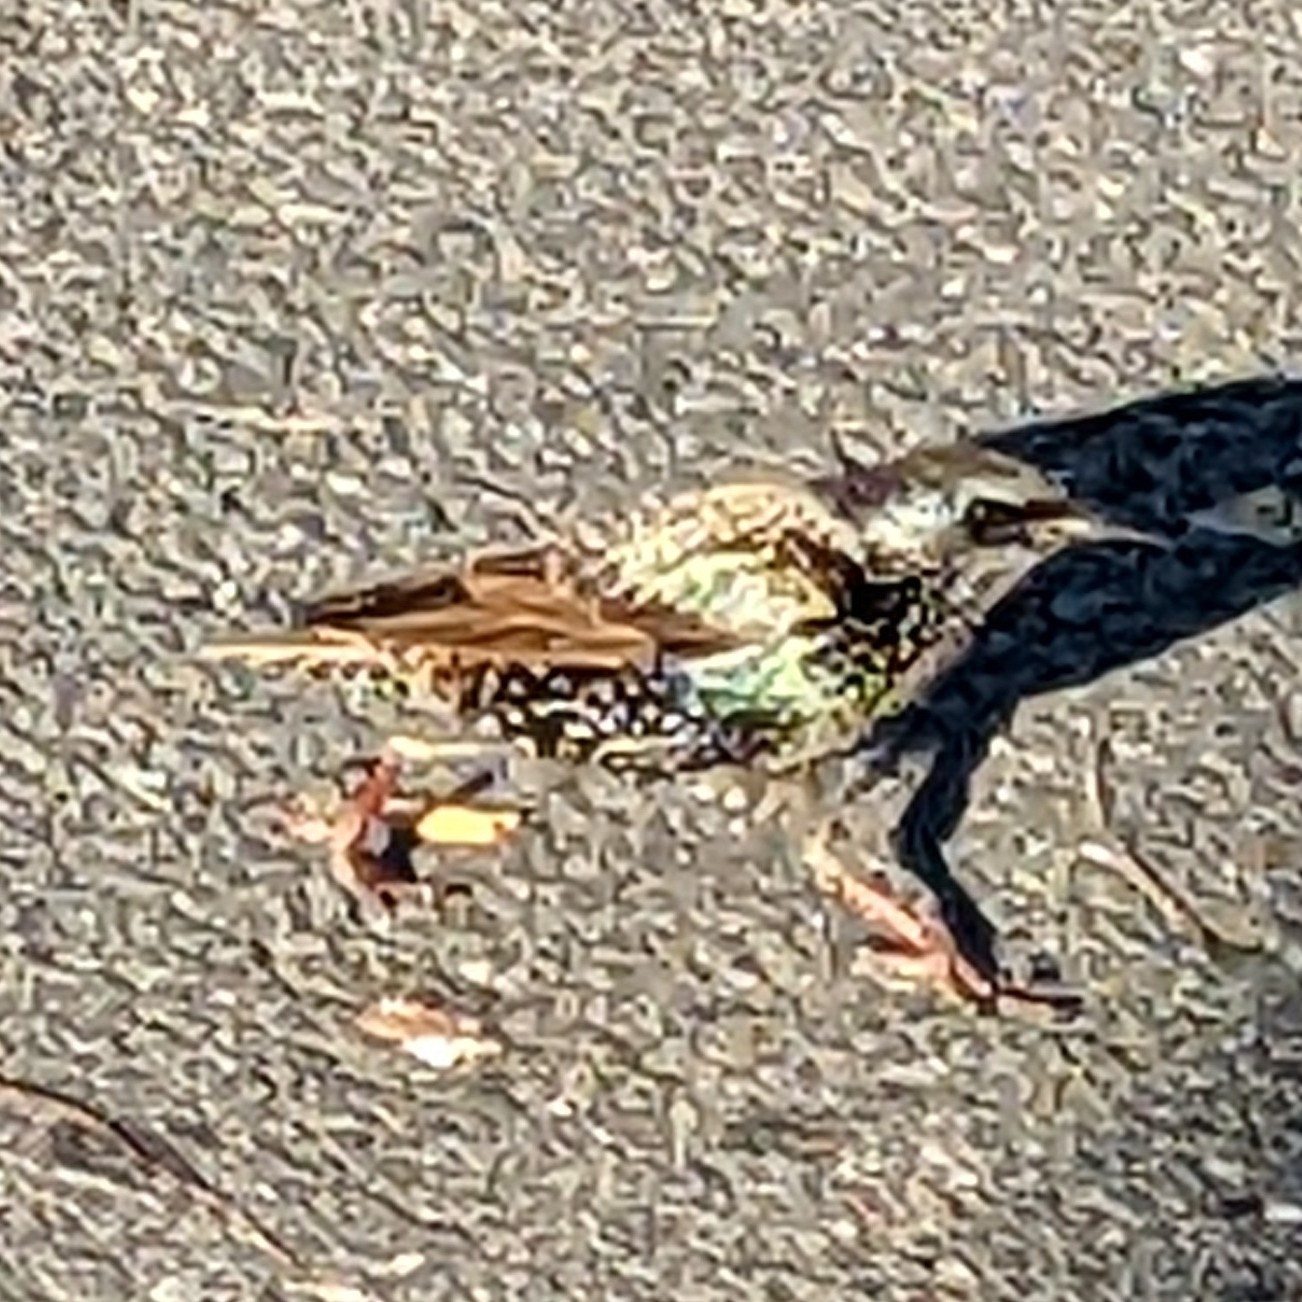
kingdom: Animalia
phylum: Chordata
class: Aves
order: Passeriformes
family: Sturnidae
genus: Sturnus
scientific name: Sturnus vulgaris
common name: Common starling
